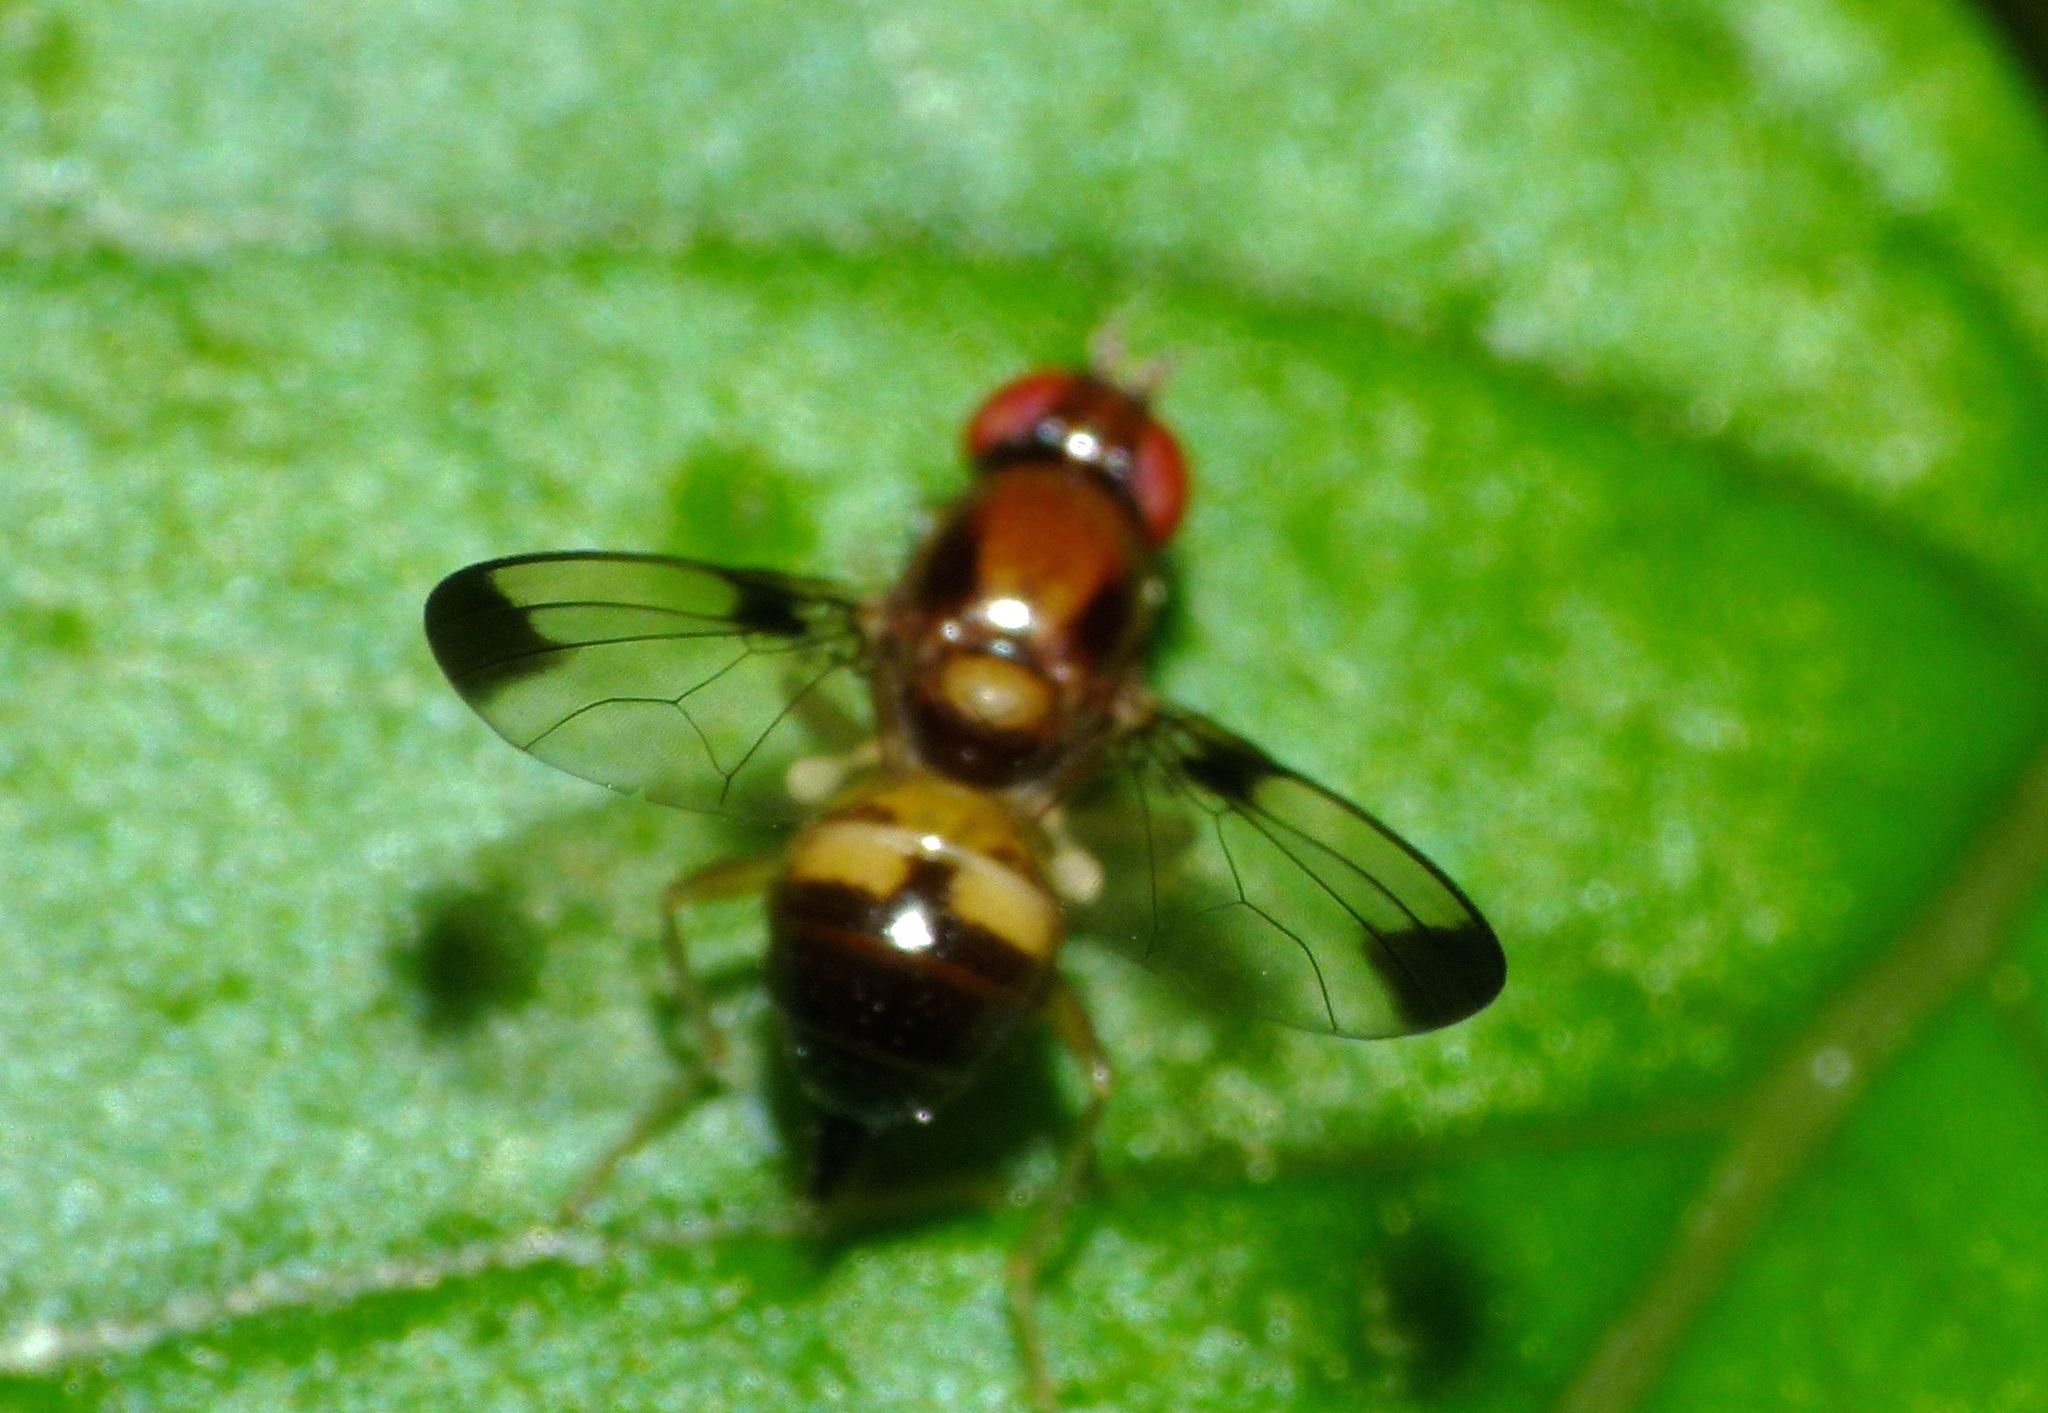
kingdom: Animalia
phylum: Arthropoda
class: Insecta
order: Diptera
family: Pallopteridae
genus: Neomaorina
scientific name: Neomaorina bimacula
